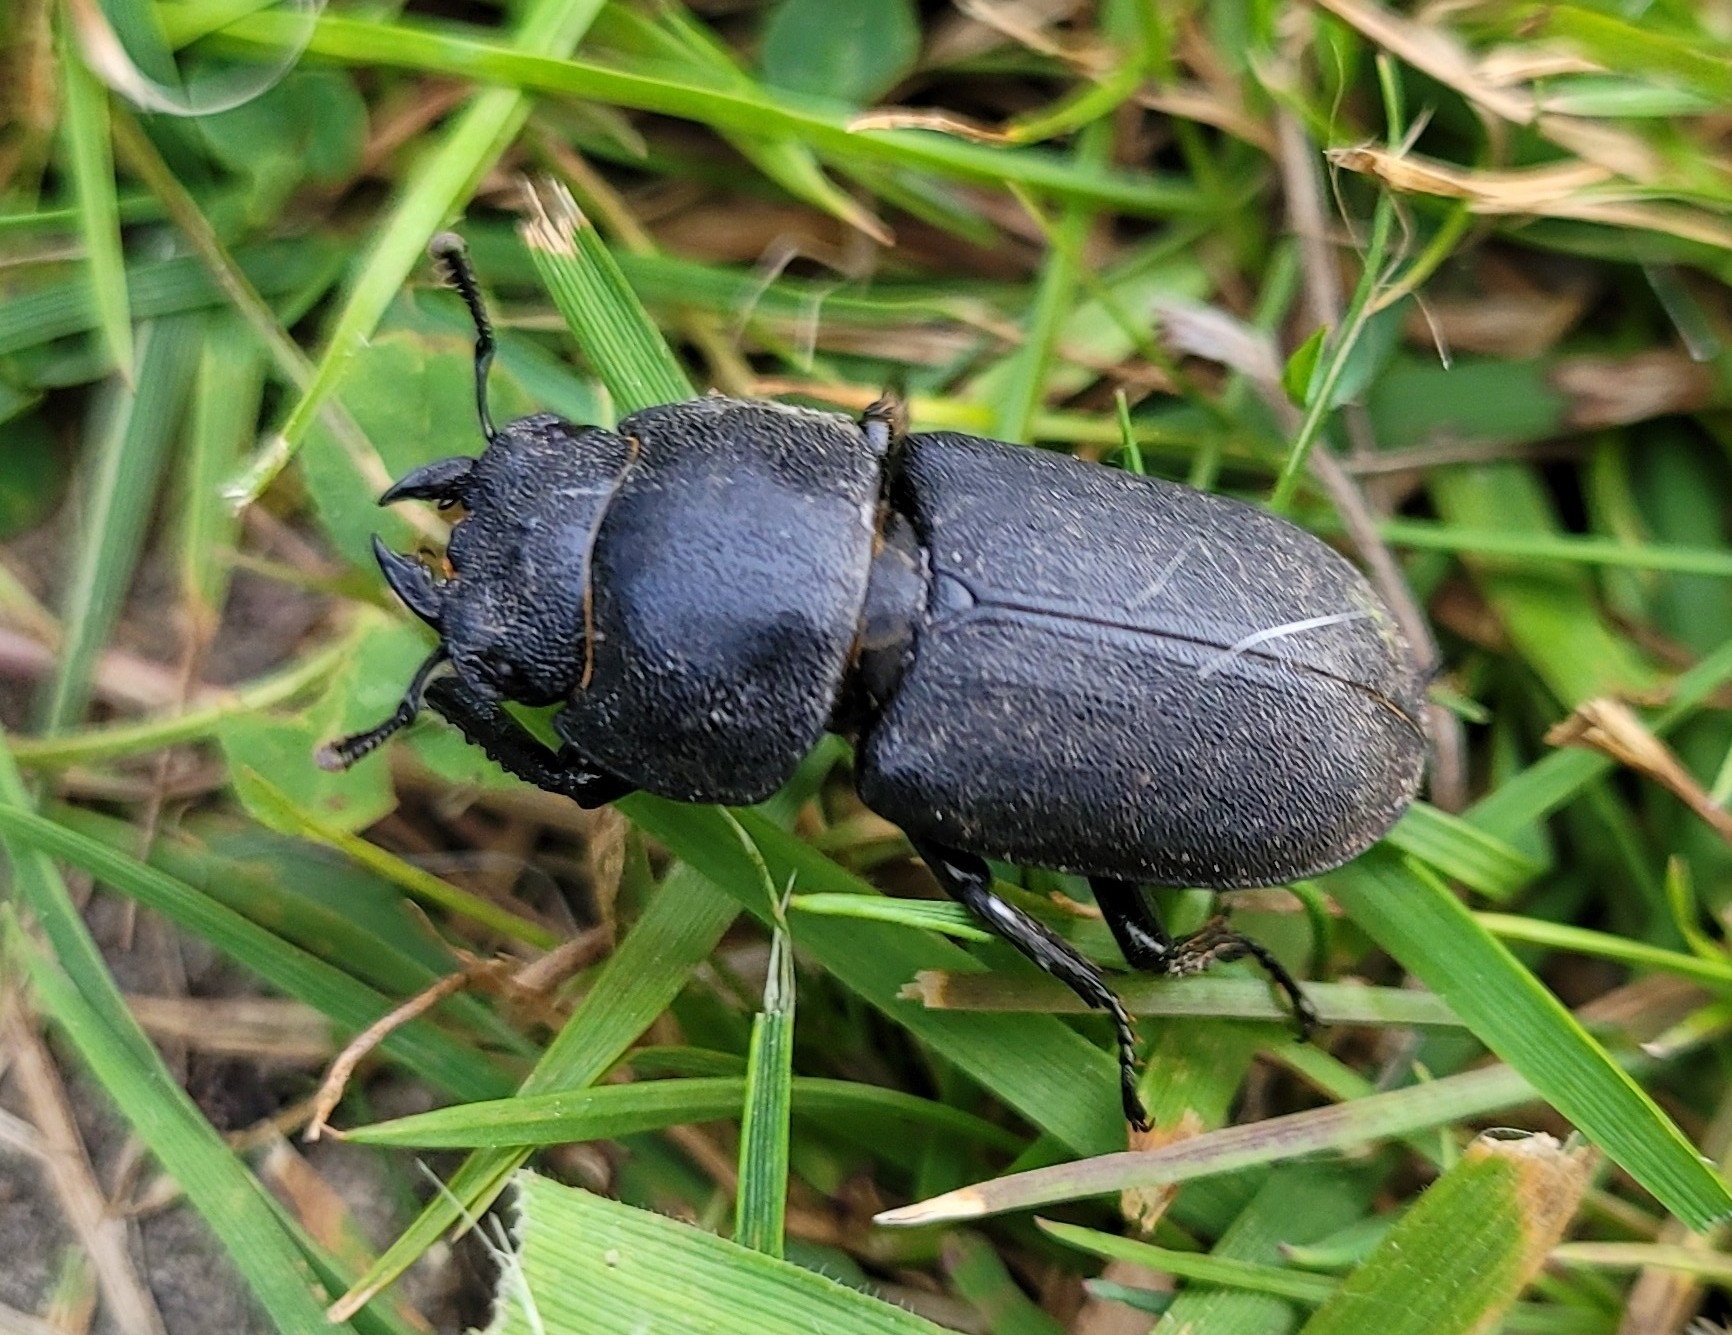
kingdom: Animalia
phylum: Arthropoda
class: Insecta
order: Coleoptera
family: Lucanidae
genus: Dorcus
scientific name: Dorcus parallelipipedus
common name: Lesser stag beetle
